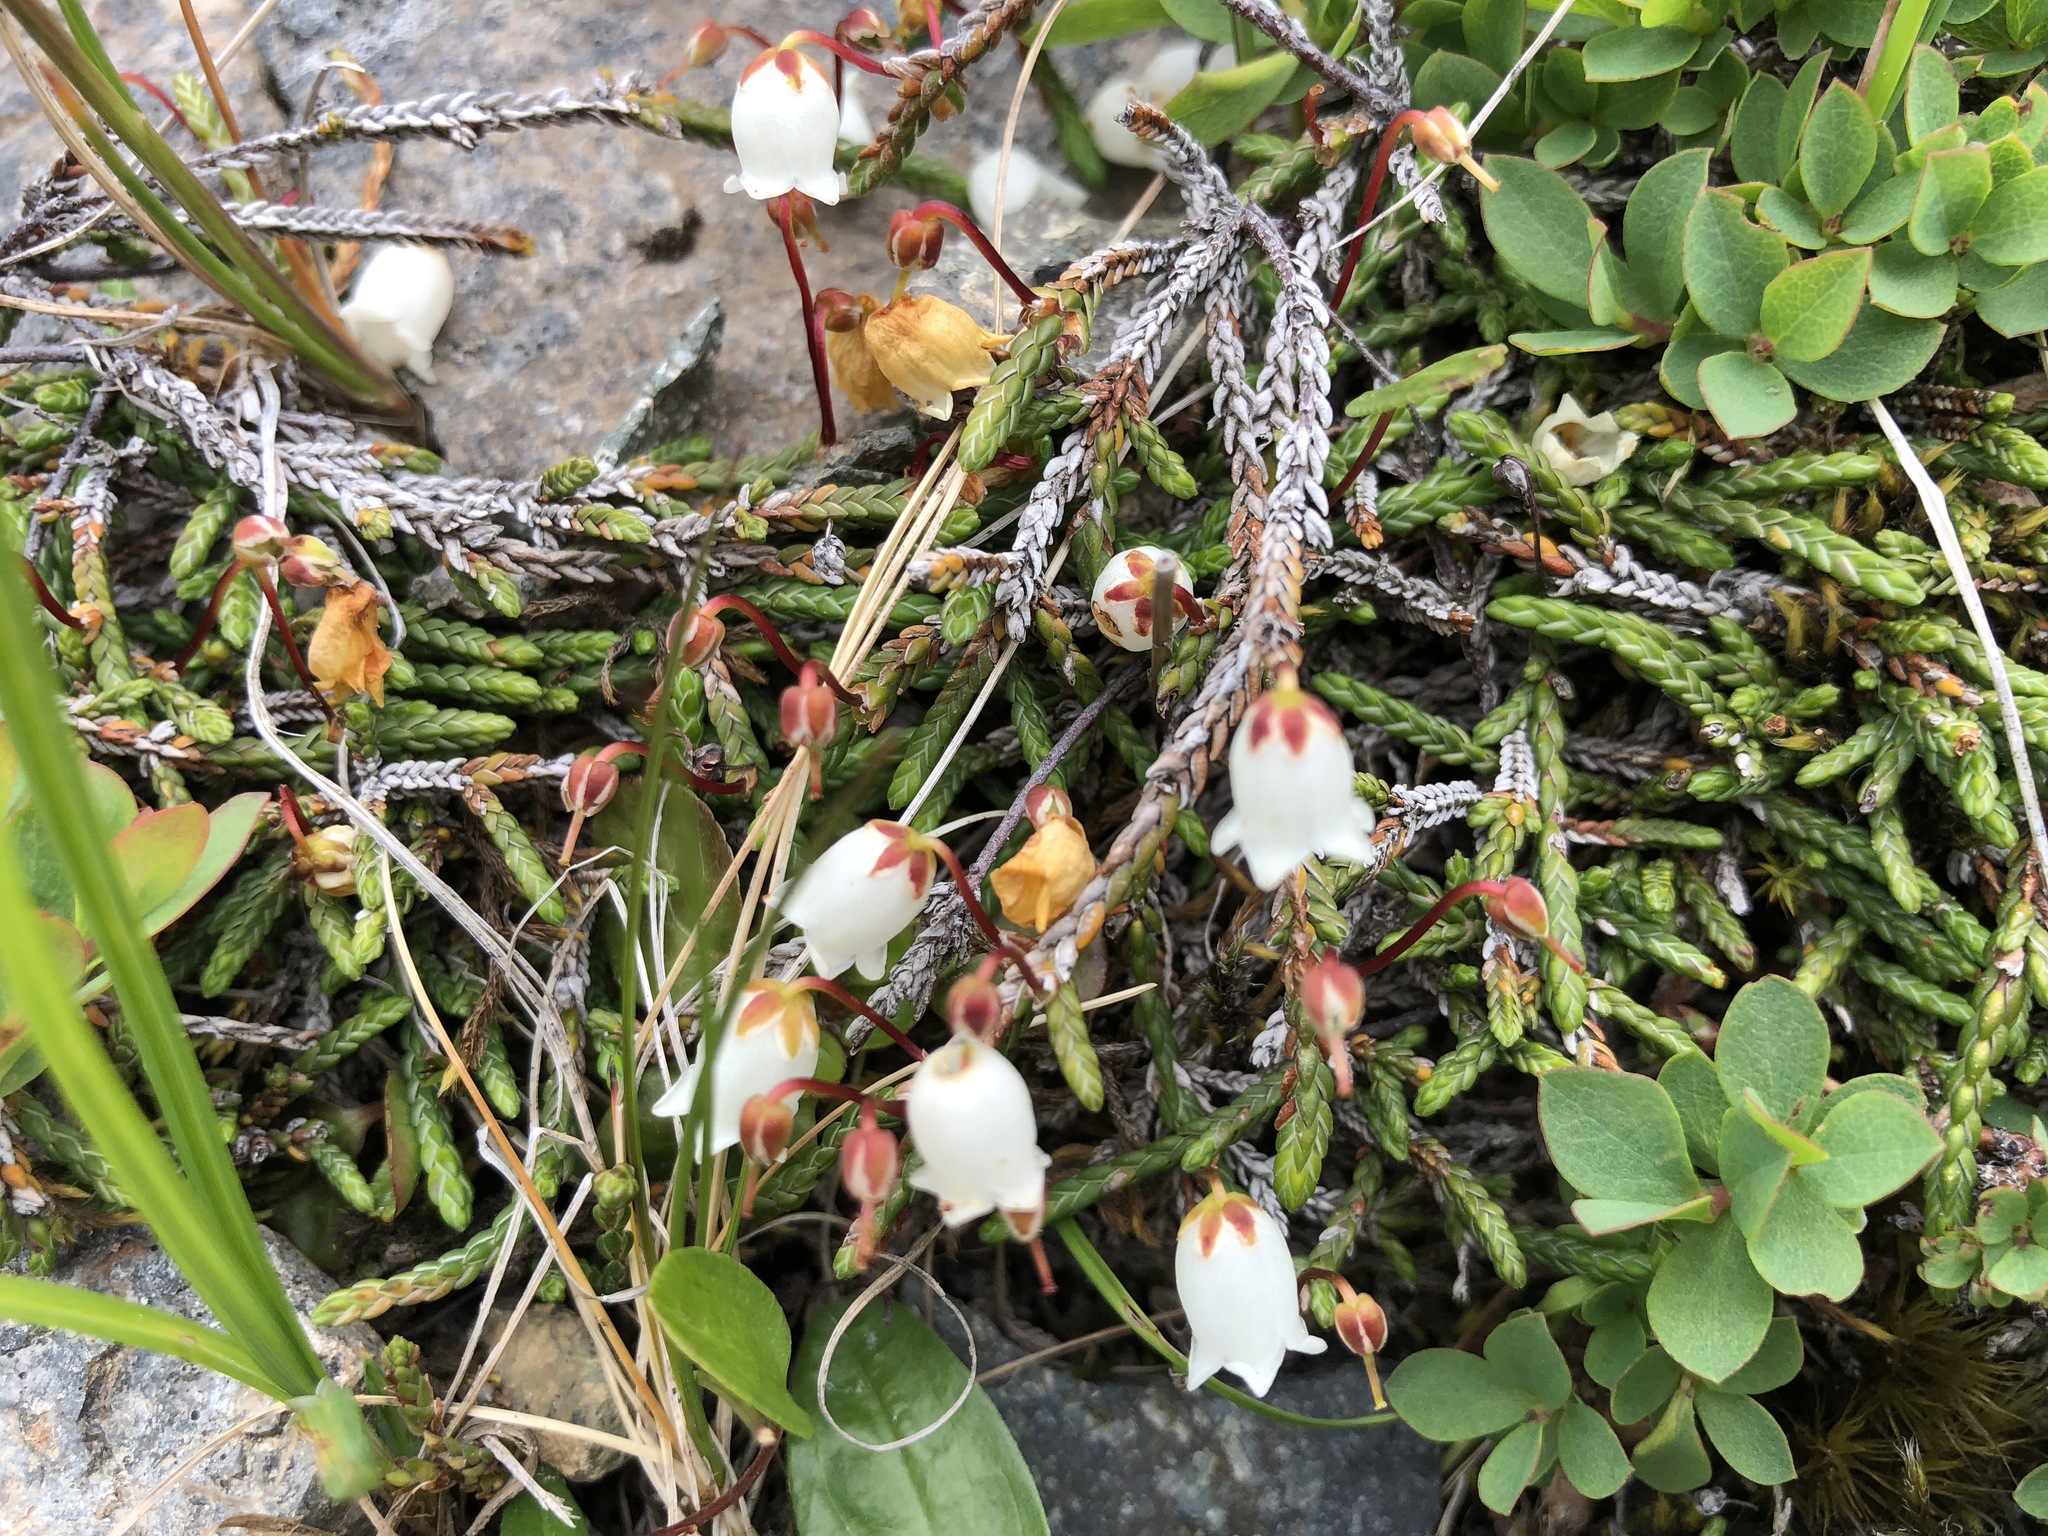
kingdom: Plantae
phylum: Tracheophyta
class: Magnoliopsida
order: Ericales
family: Ericaceae
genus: Cassiope
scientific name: Cassiope lycopodioides
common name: Clubmoss mountain heather
